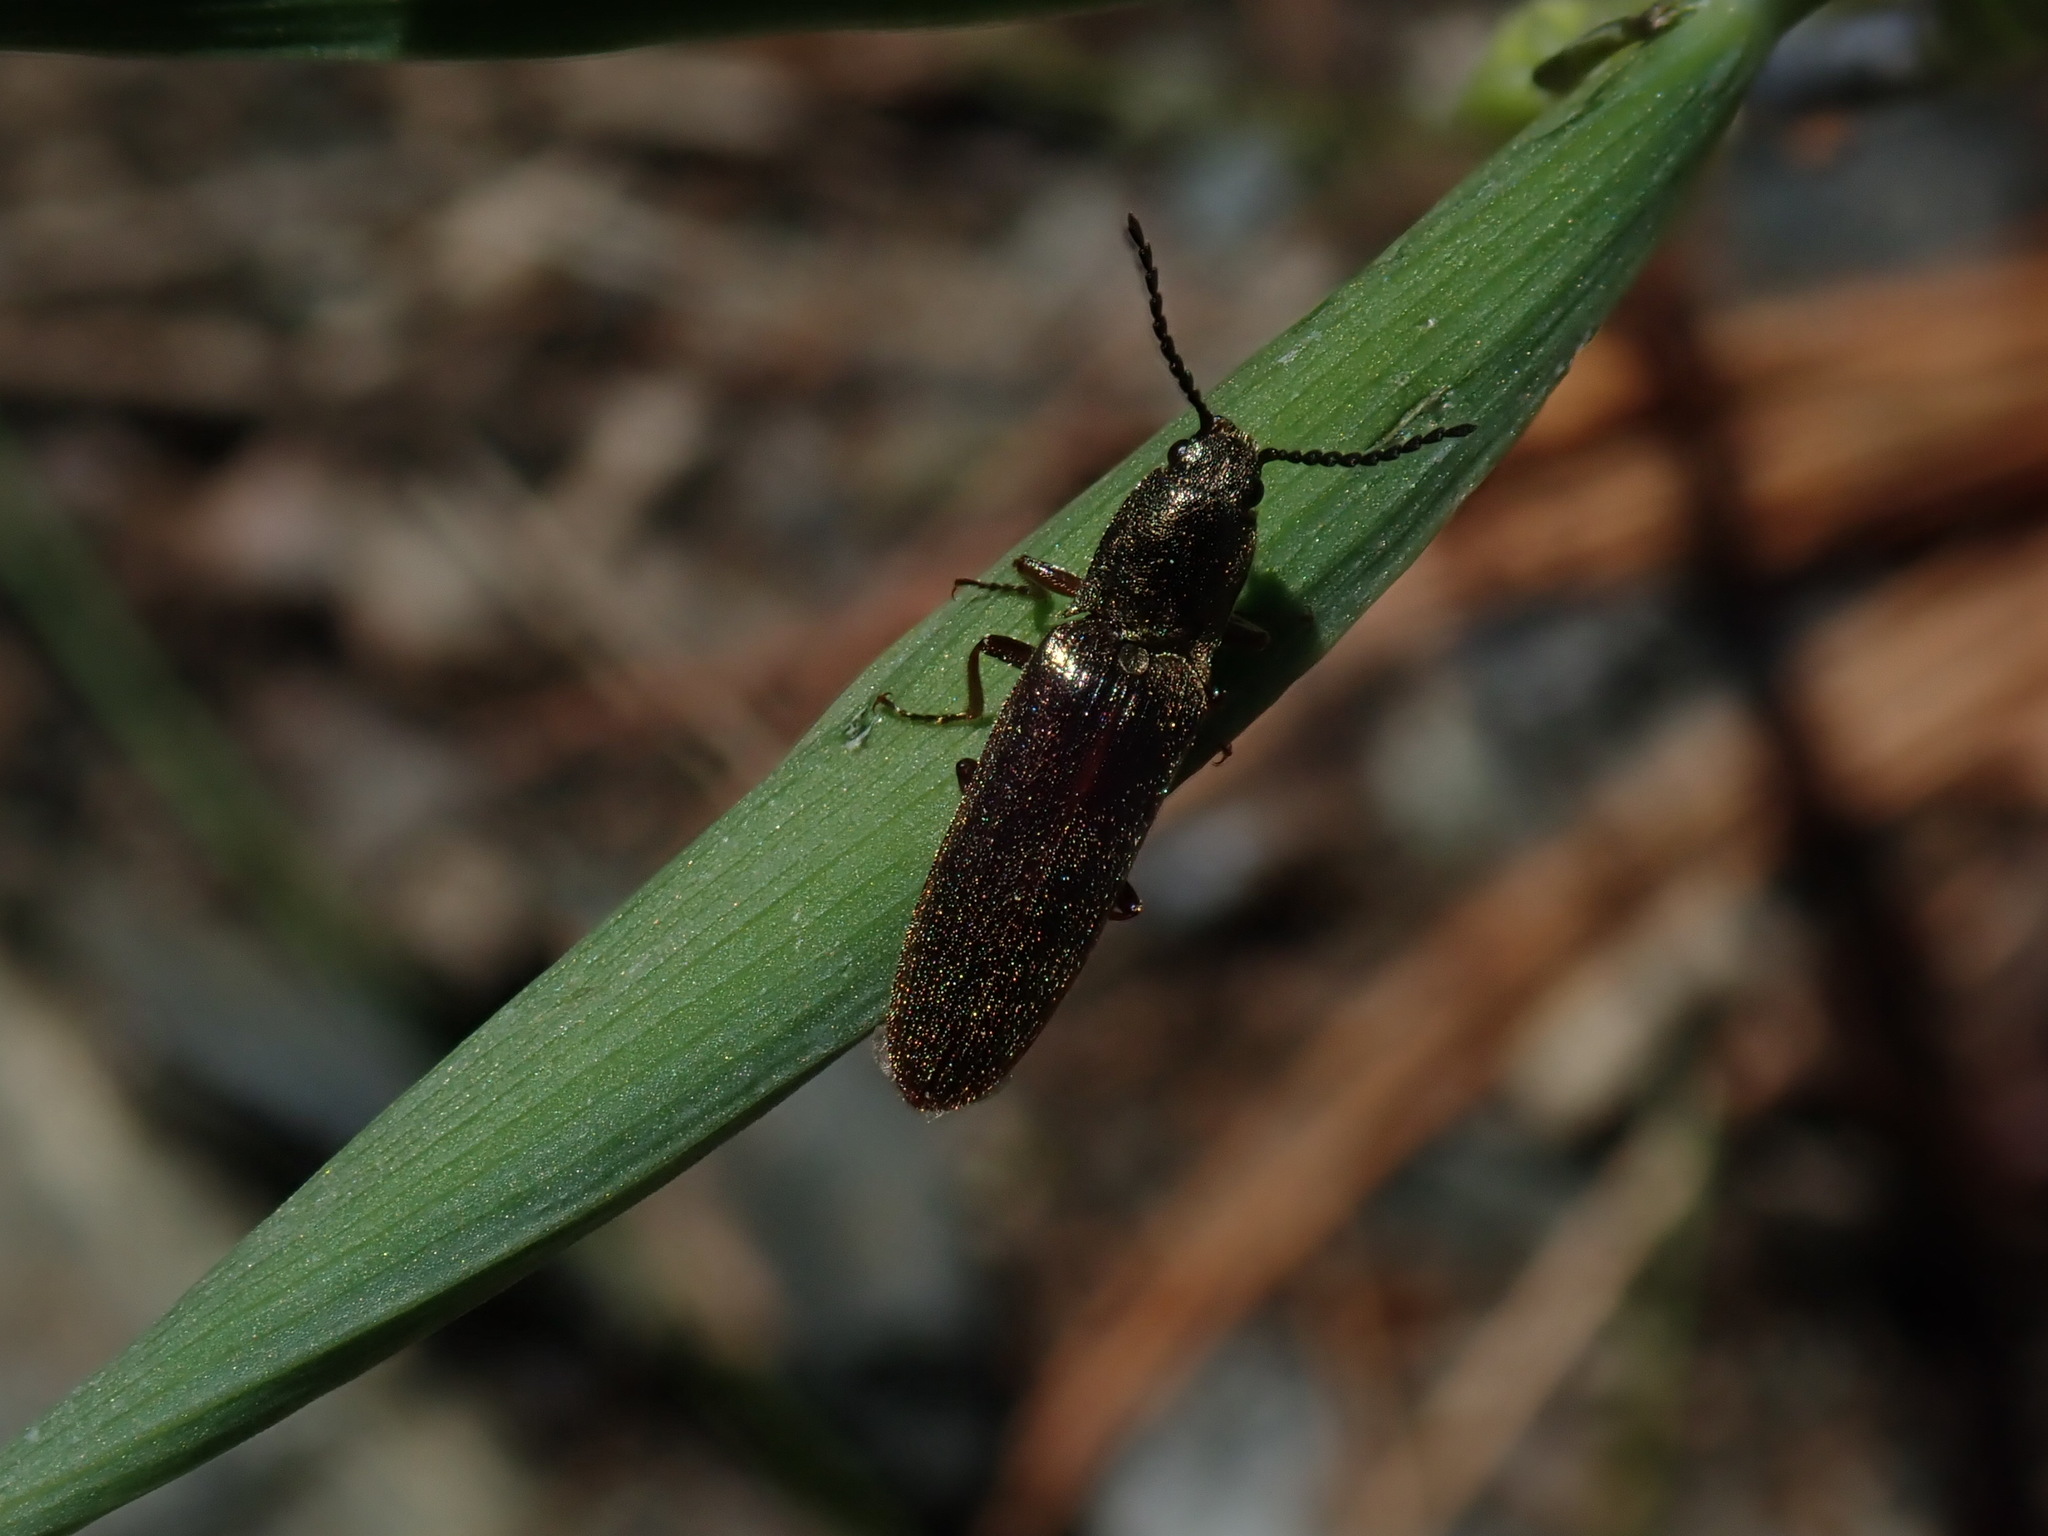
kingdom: Animalia
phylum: Arthropoda
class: Insecta
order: Coleoptera
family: Elateridae
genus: Sylvanelater
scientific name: Sylvanelater cylindriformis
